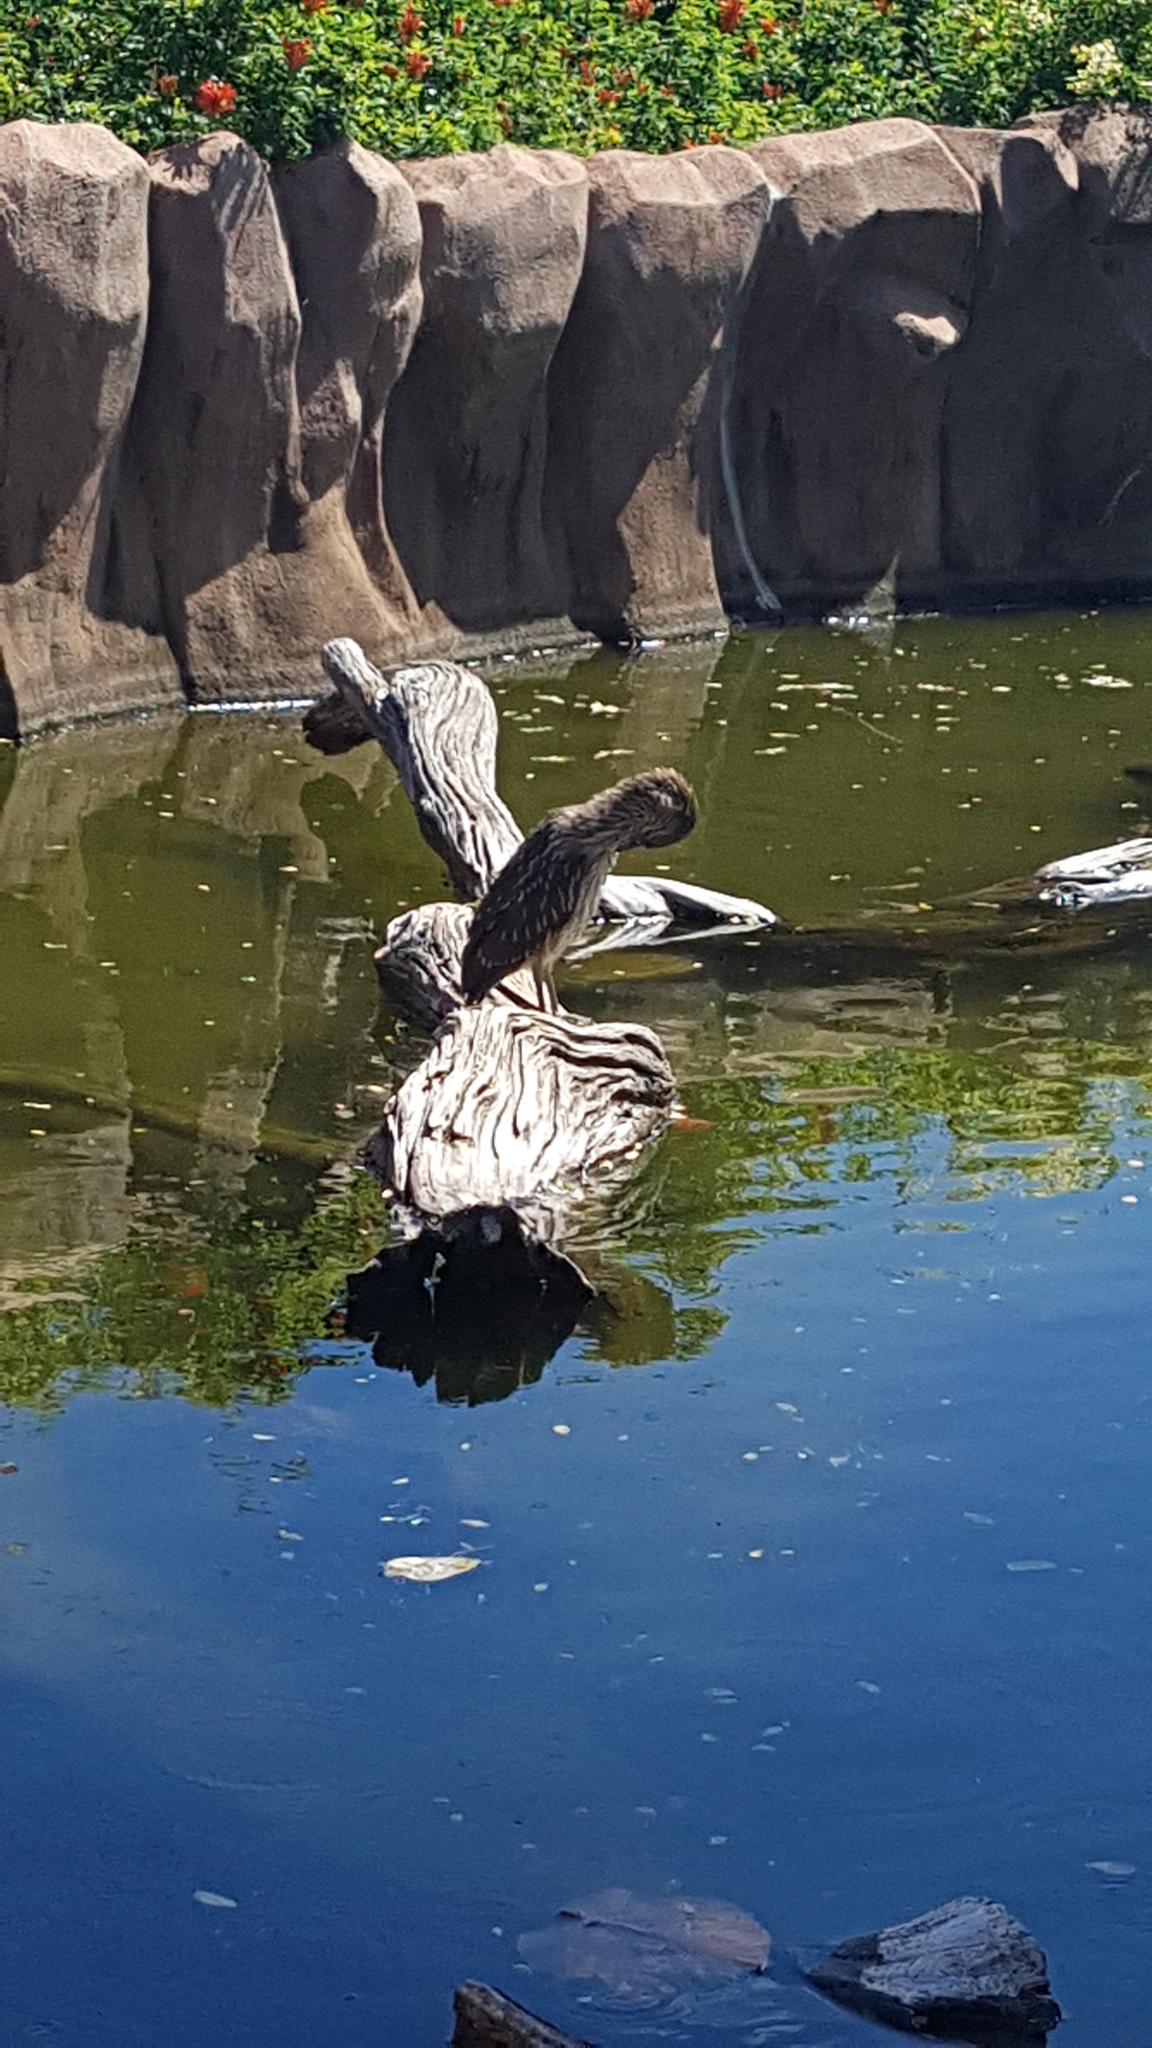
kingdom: Animalia
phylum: Chordata
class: Aves
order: Pelecaniformes
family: Ardeidae
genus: Nycticorax
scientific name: Nycticorax nycticorax
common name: Black-crowned night heron
